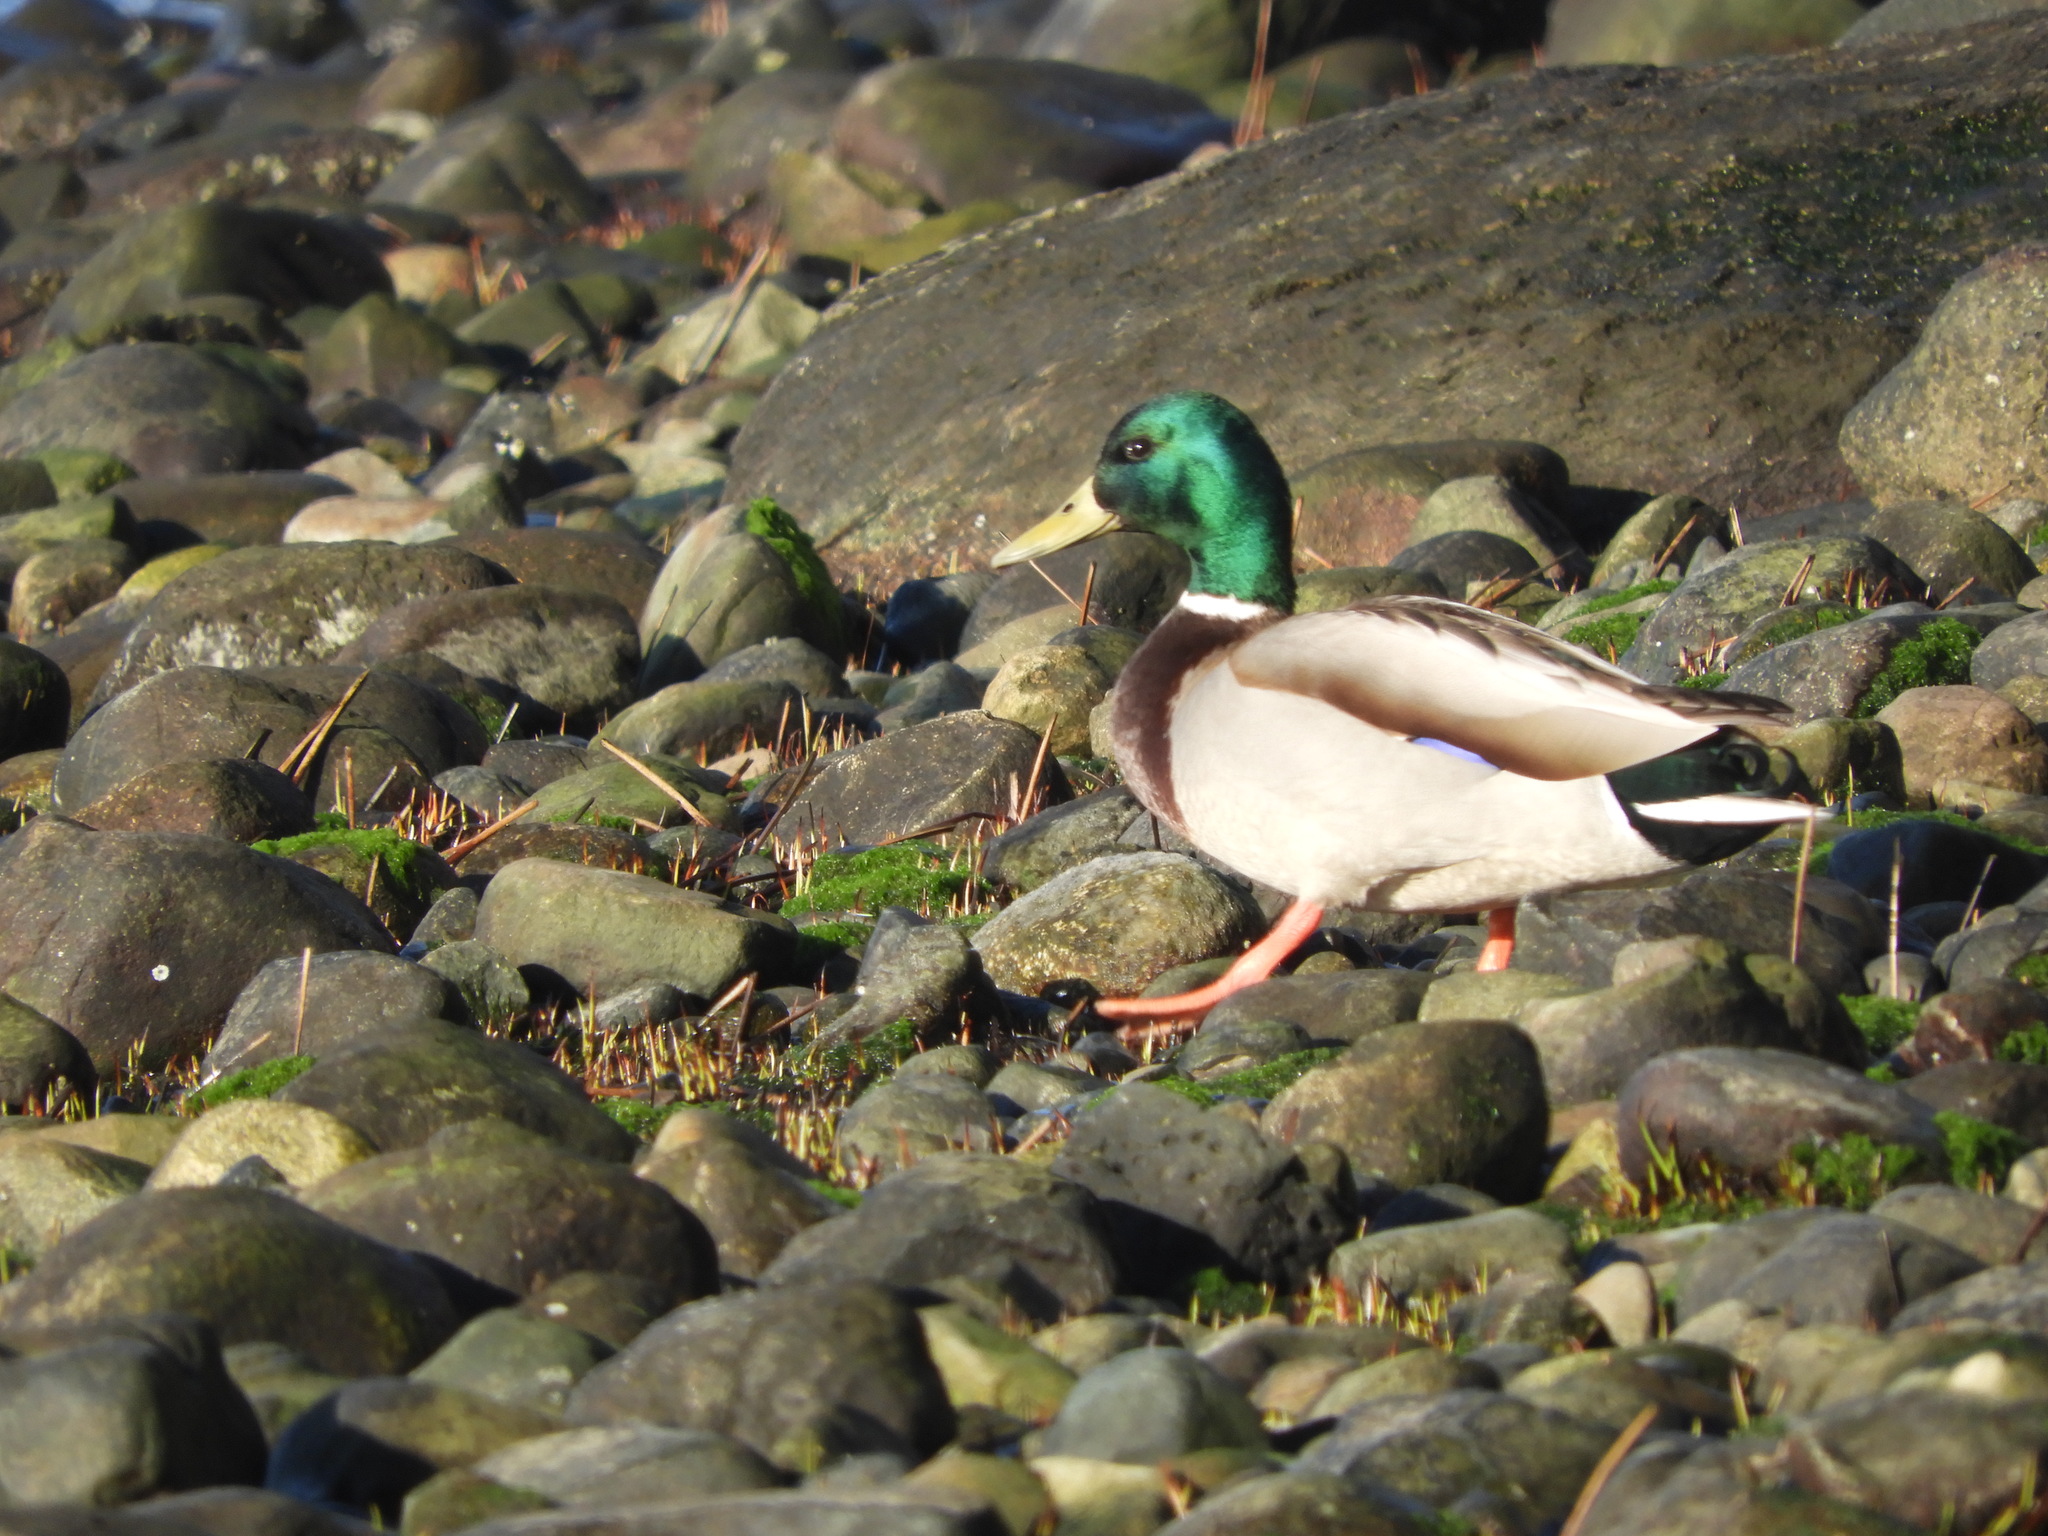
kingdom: Animalia
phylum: Chordata
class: Aves
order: Anseriformes
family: Anatidae
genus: Anas
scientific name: Anas platyrhynchos
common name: Mallard
